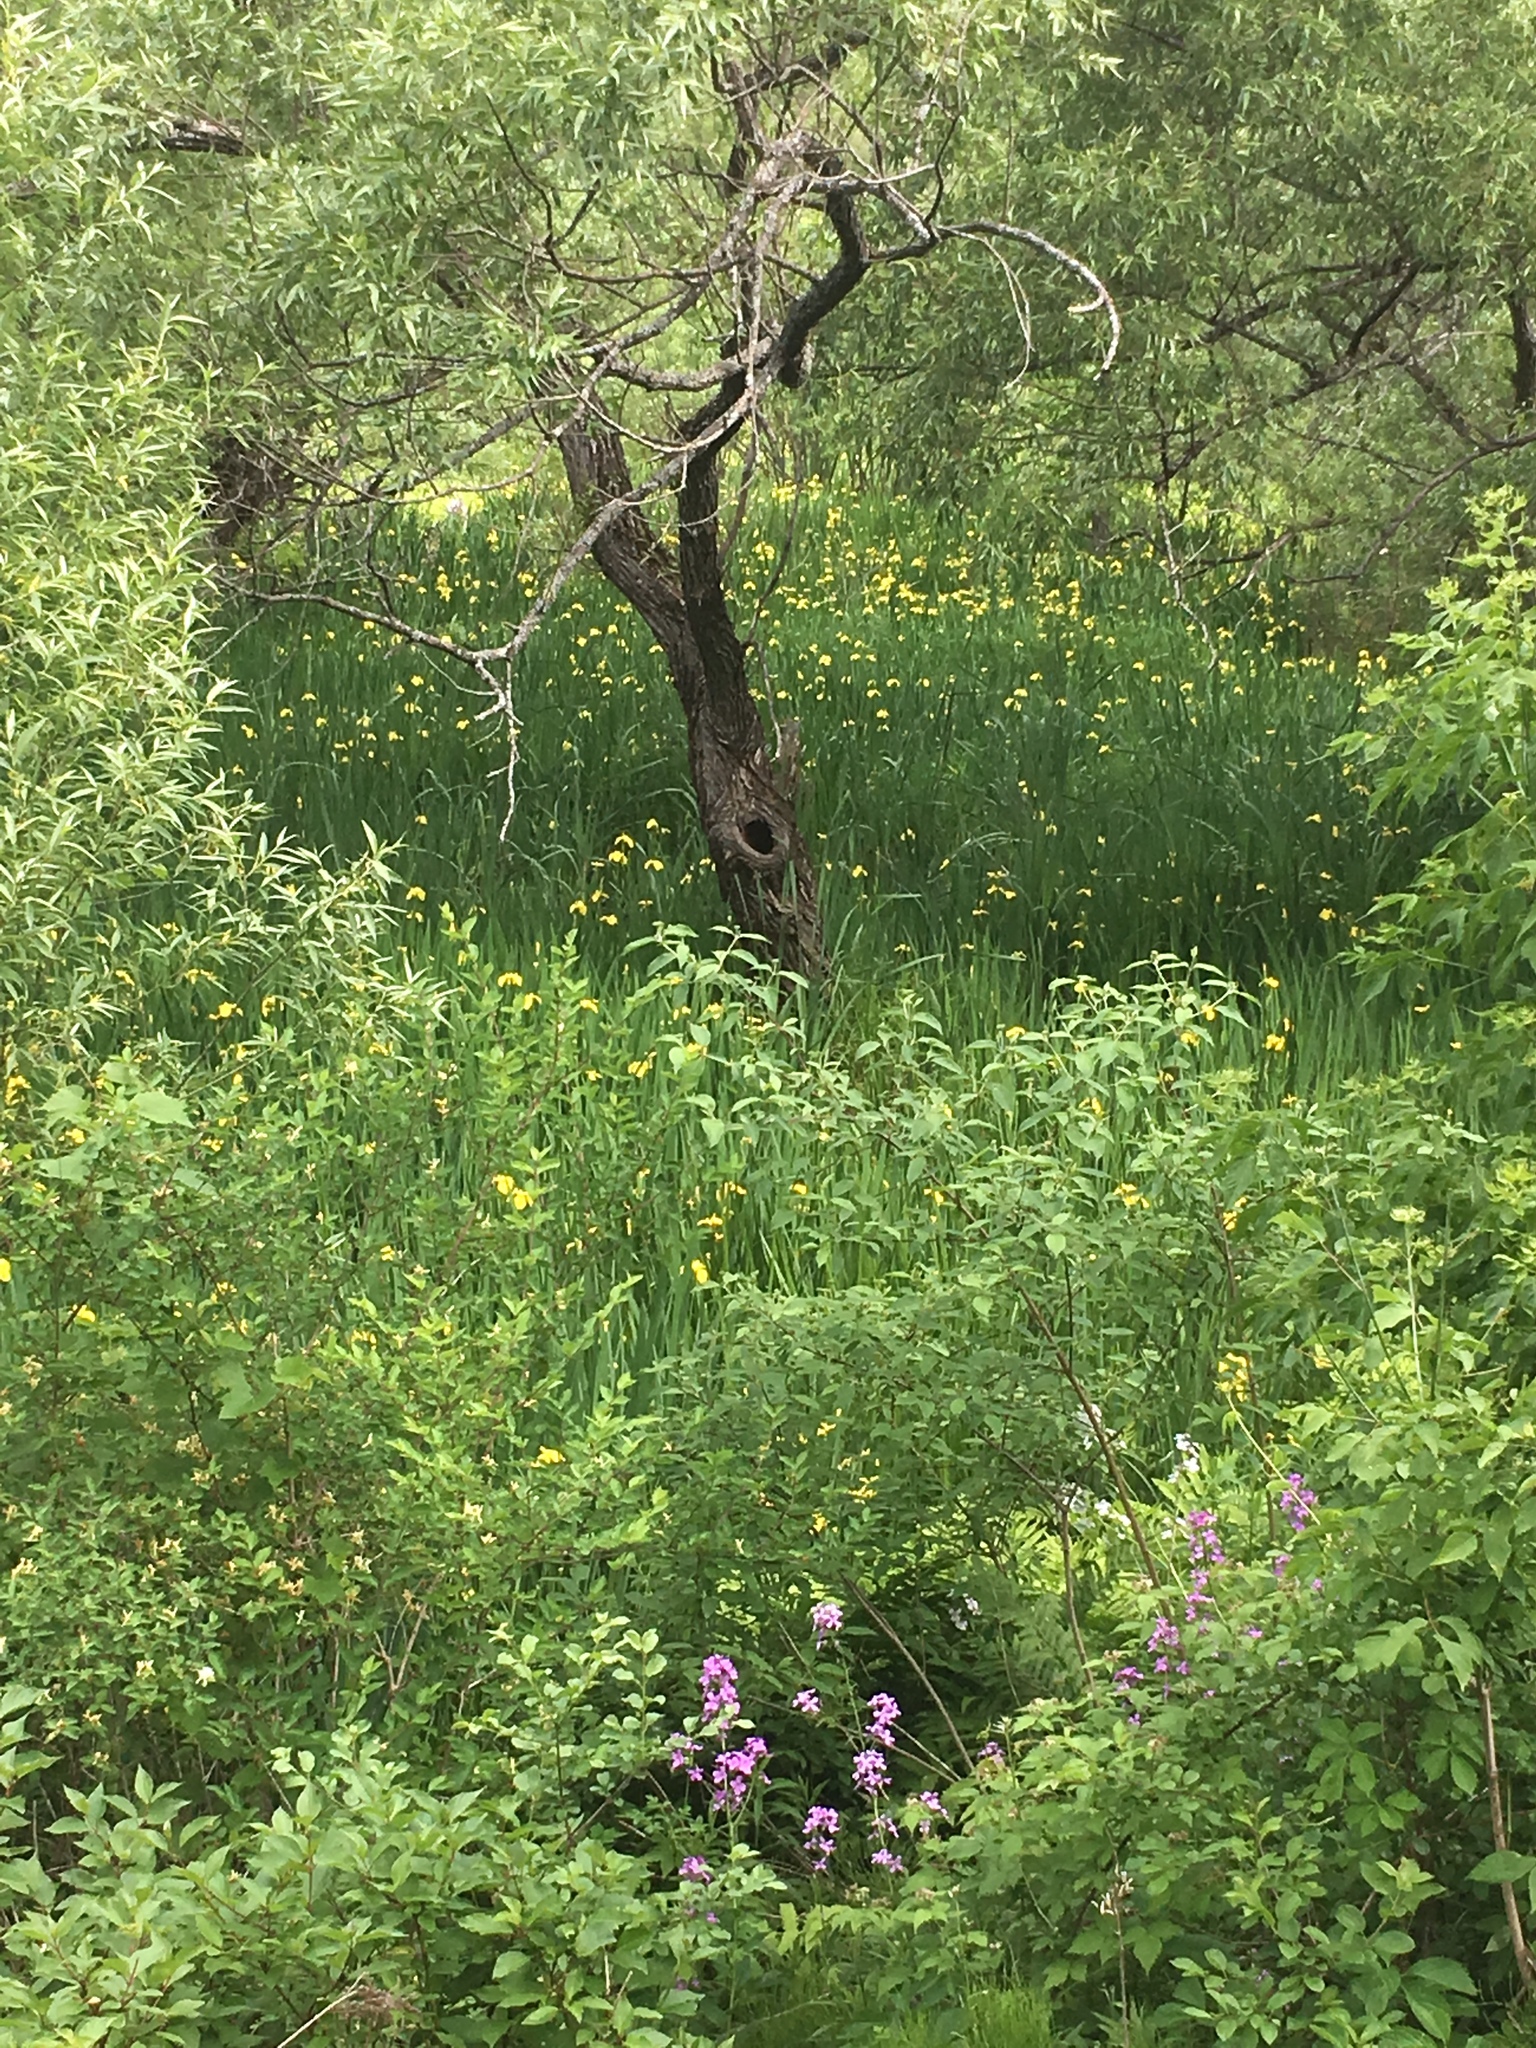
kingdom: Plantae
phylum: Tracheophyta
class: Liliopsida
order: Asparagales
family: Iridaceae
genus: Iris
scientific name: Iris pseudacorus
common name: Yellow flag
